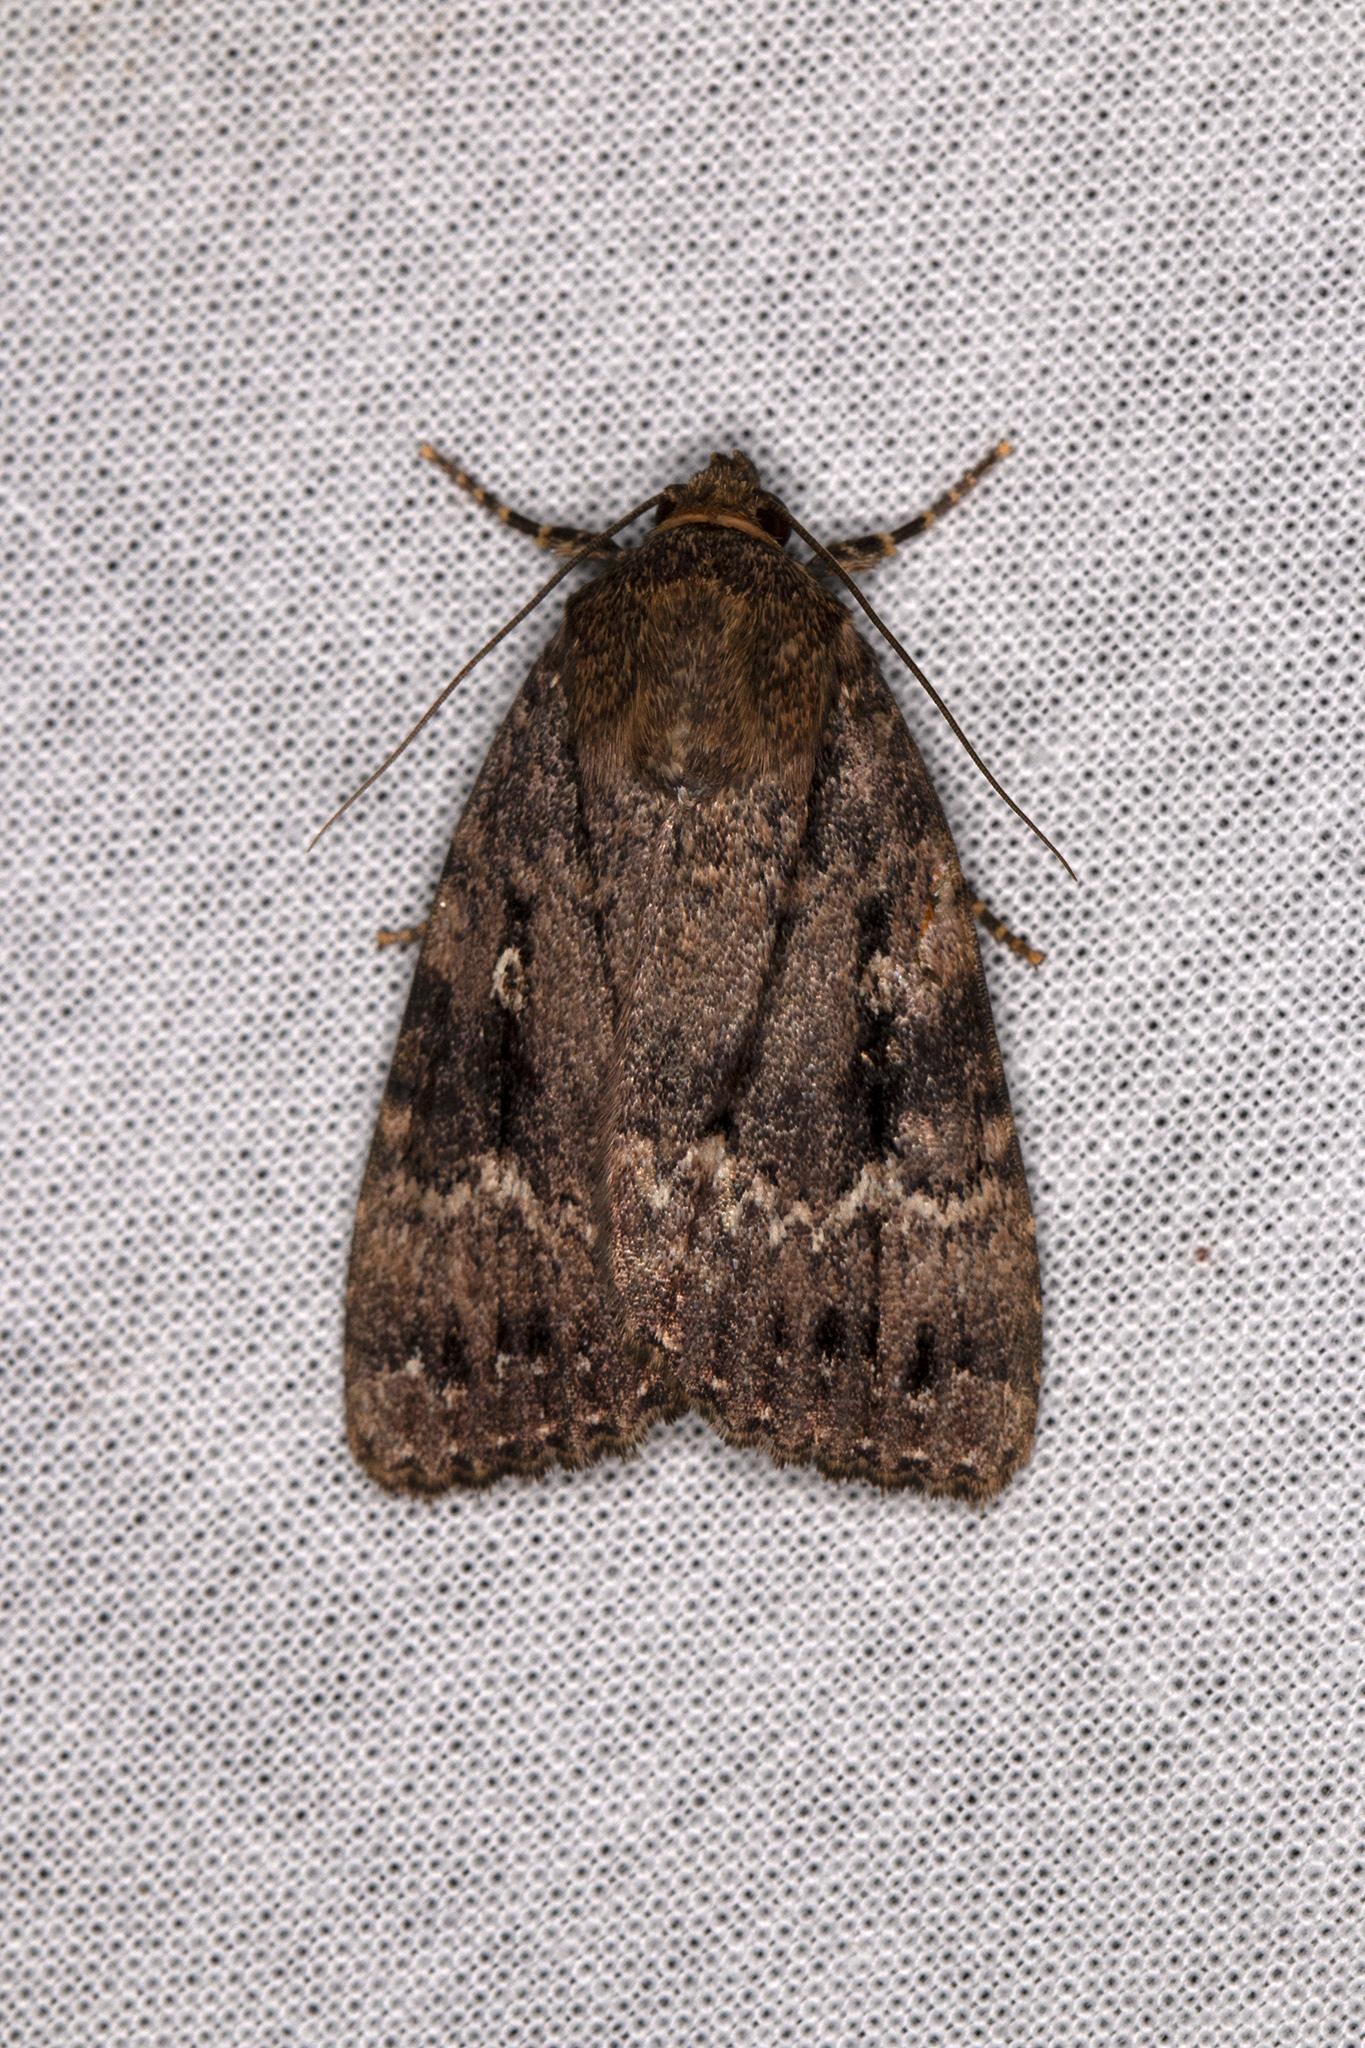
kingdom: Animalia
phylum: Arthropoda
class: Insecta
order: Lepidoptera
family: Noctuidae
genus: Amphipyra
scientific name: Amphipyra pyramidea
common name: Copper underwing
